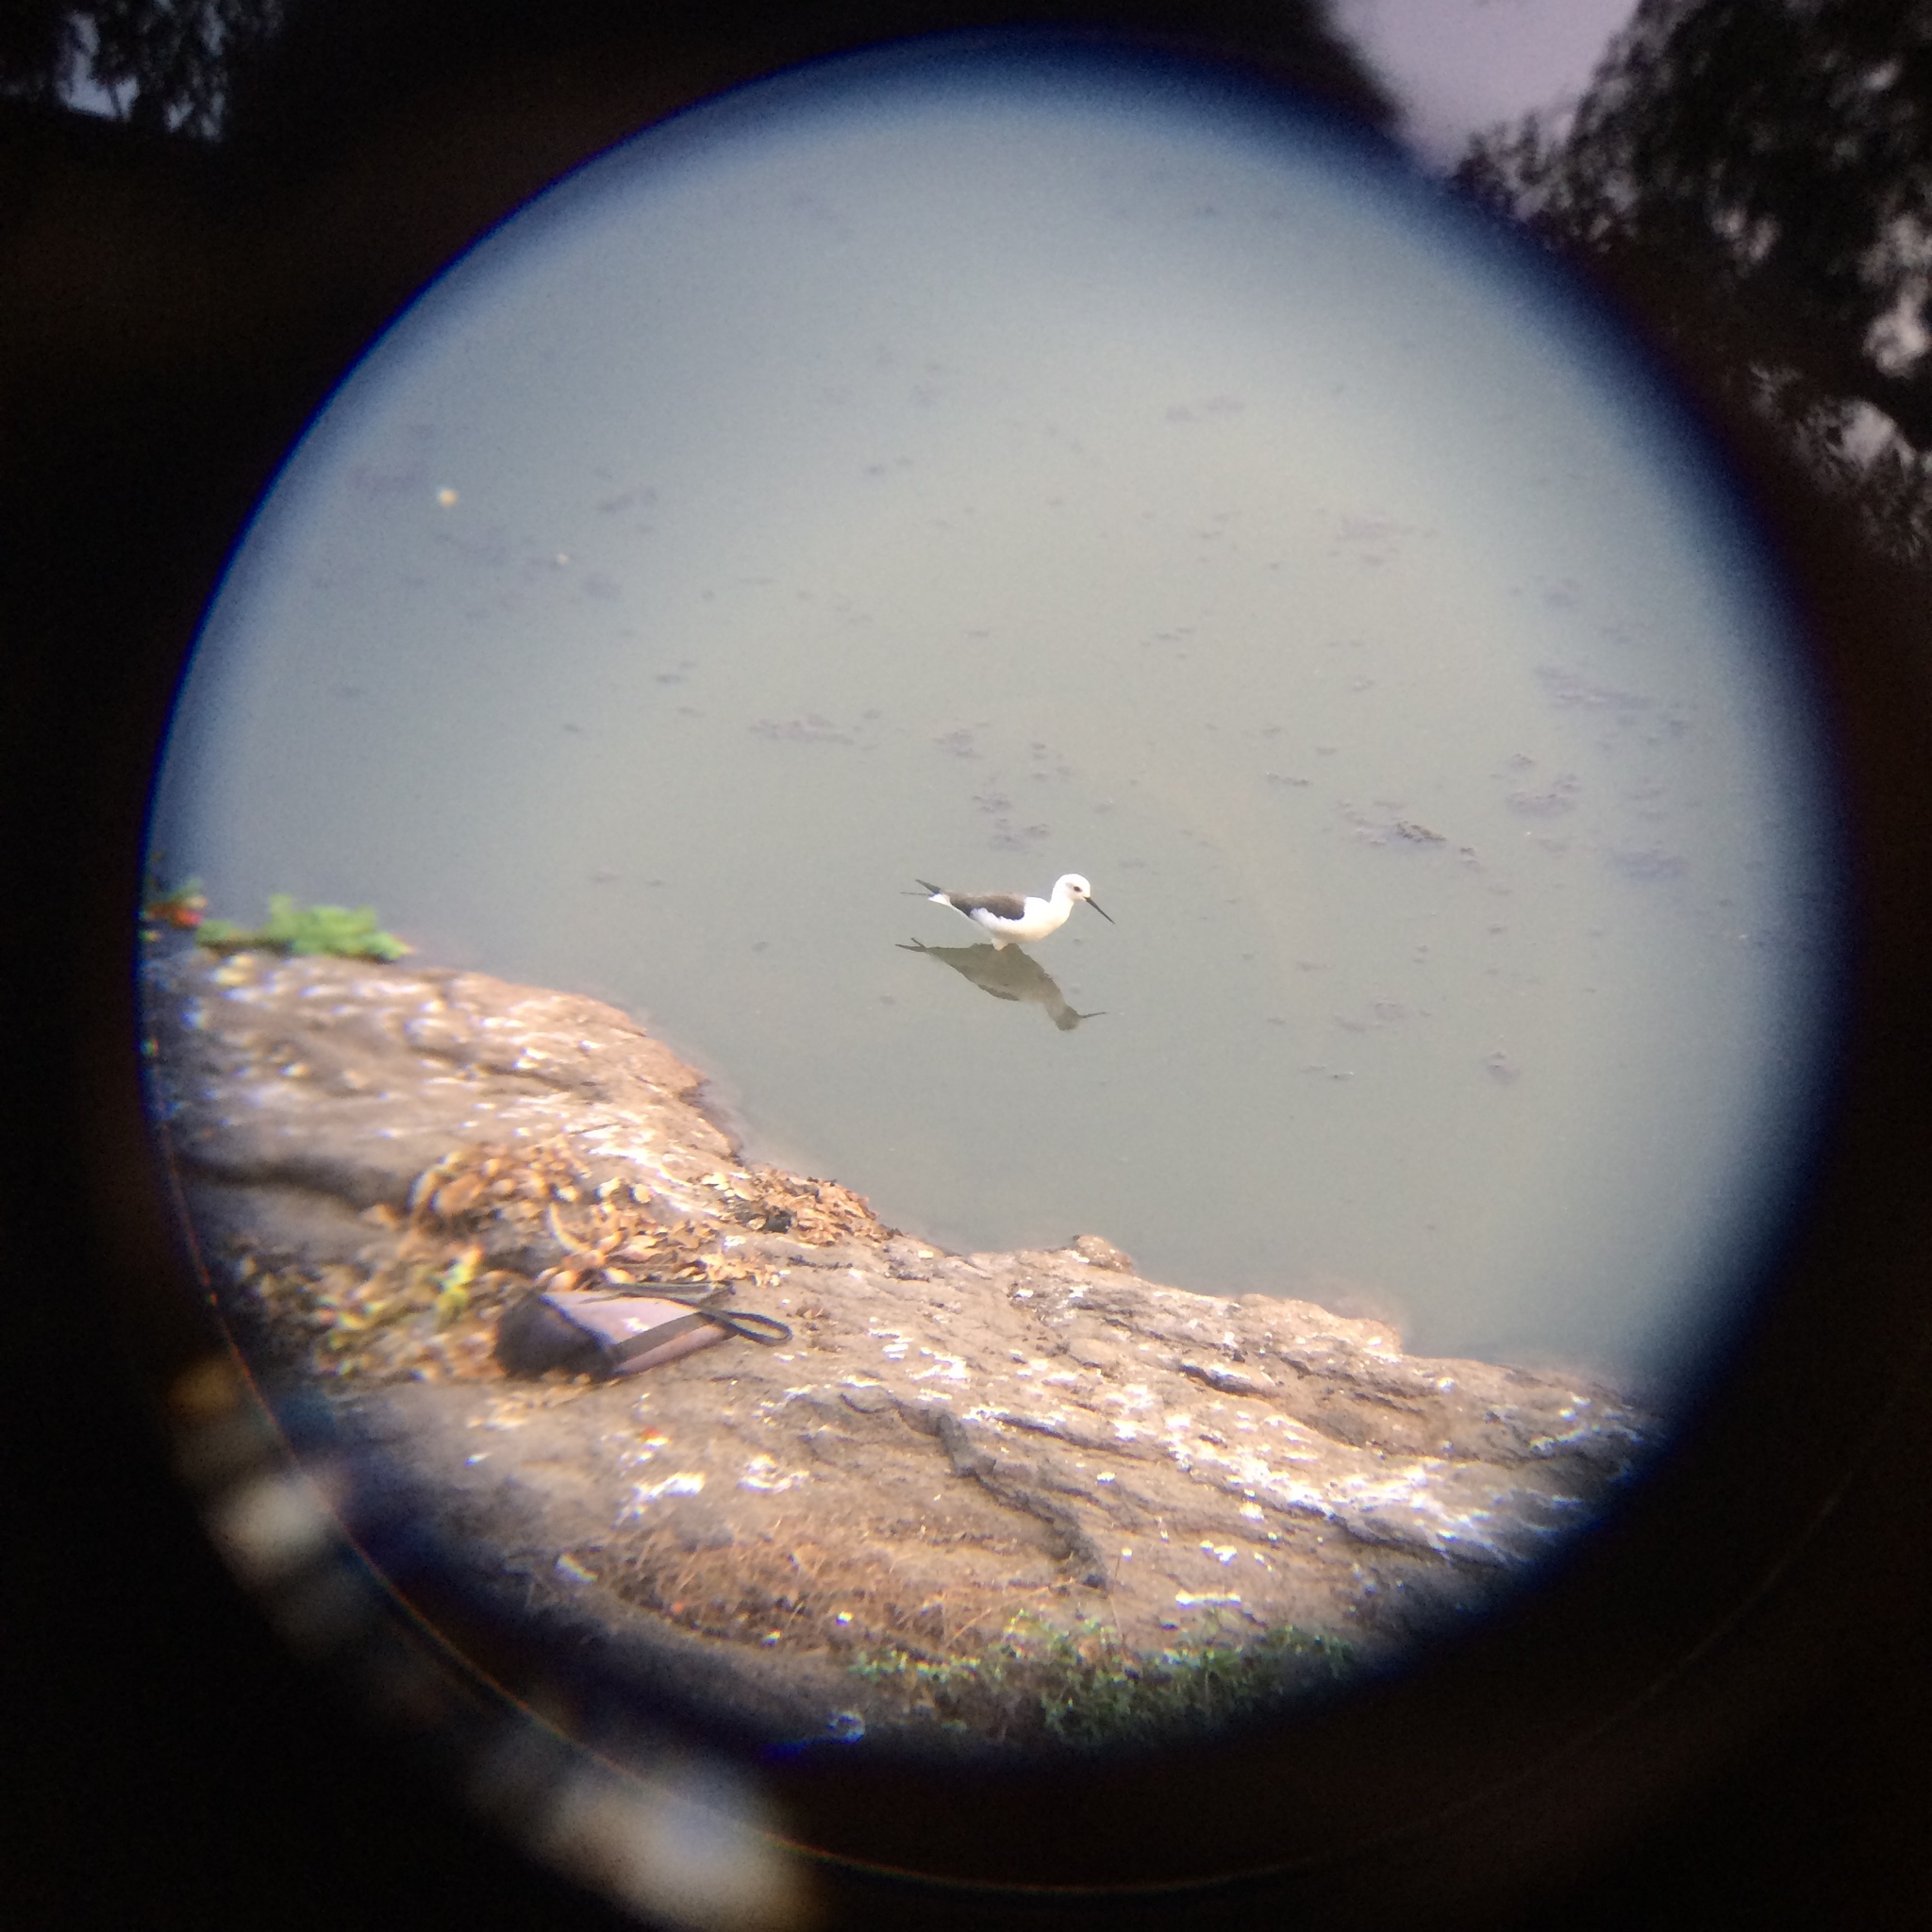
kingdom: Animalia
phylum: Chordata
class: Aves
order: Charadriiformes
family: Recurvirostridae
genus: Himantopus
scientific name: Himantopus himantopus
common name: Black-winged stilt
